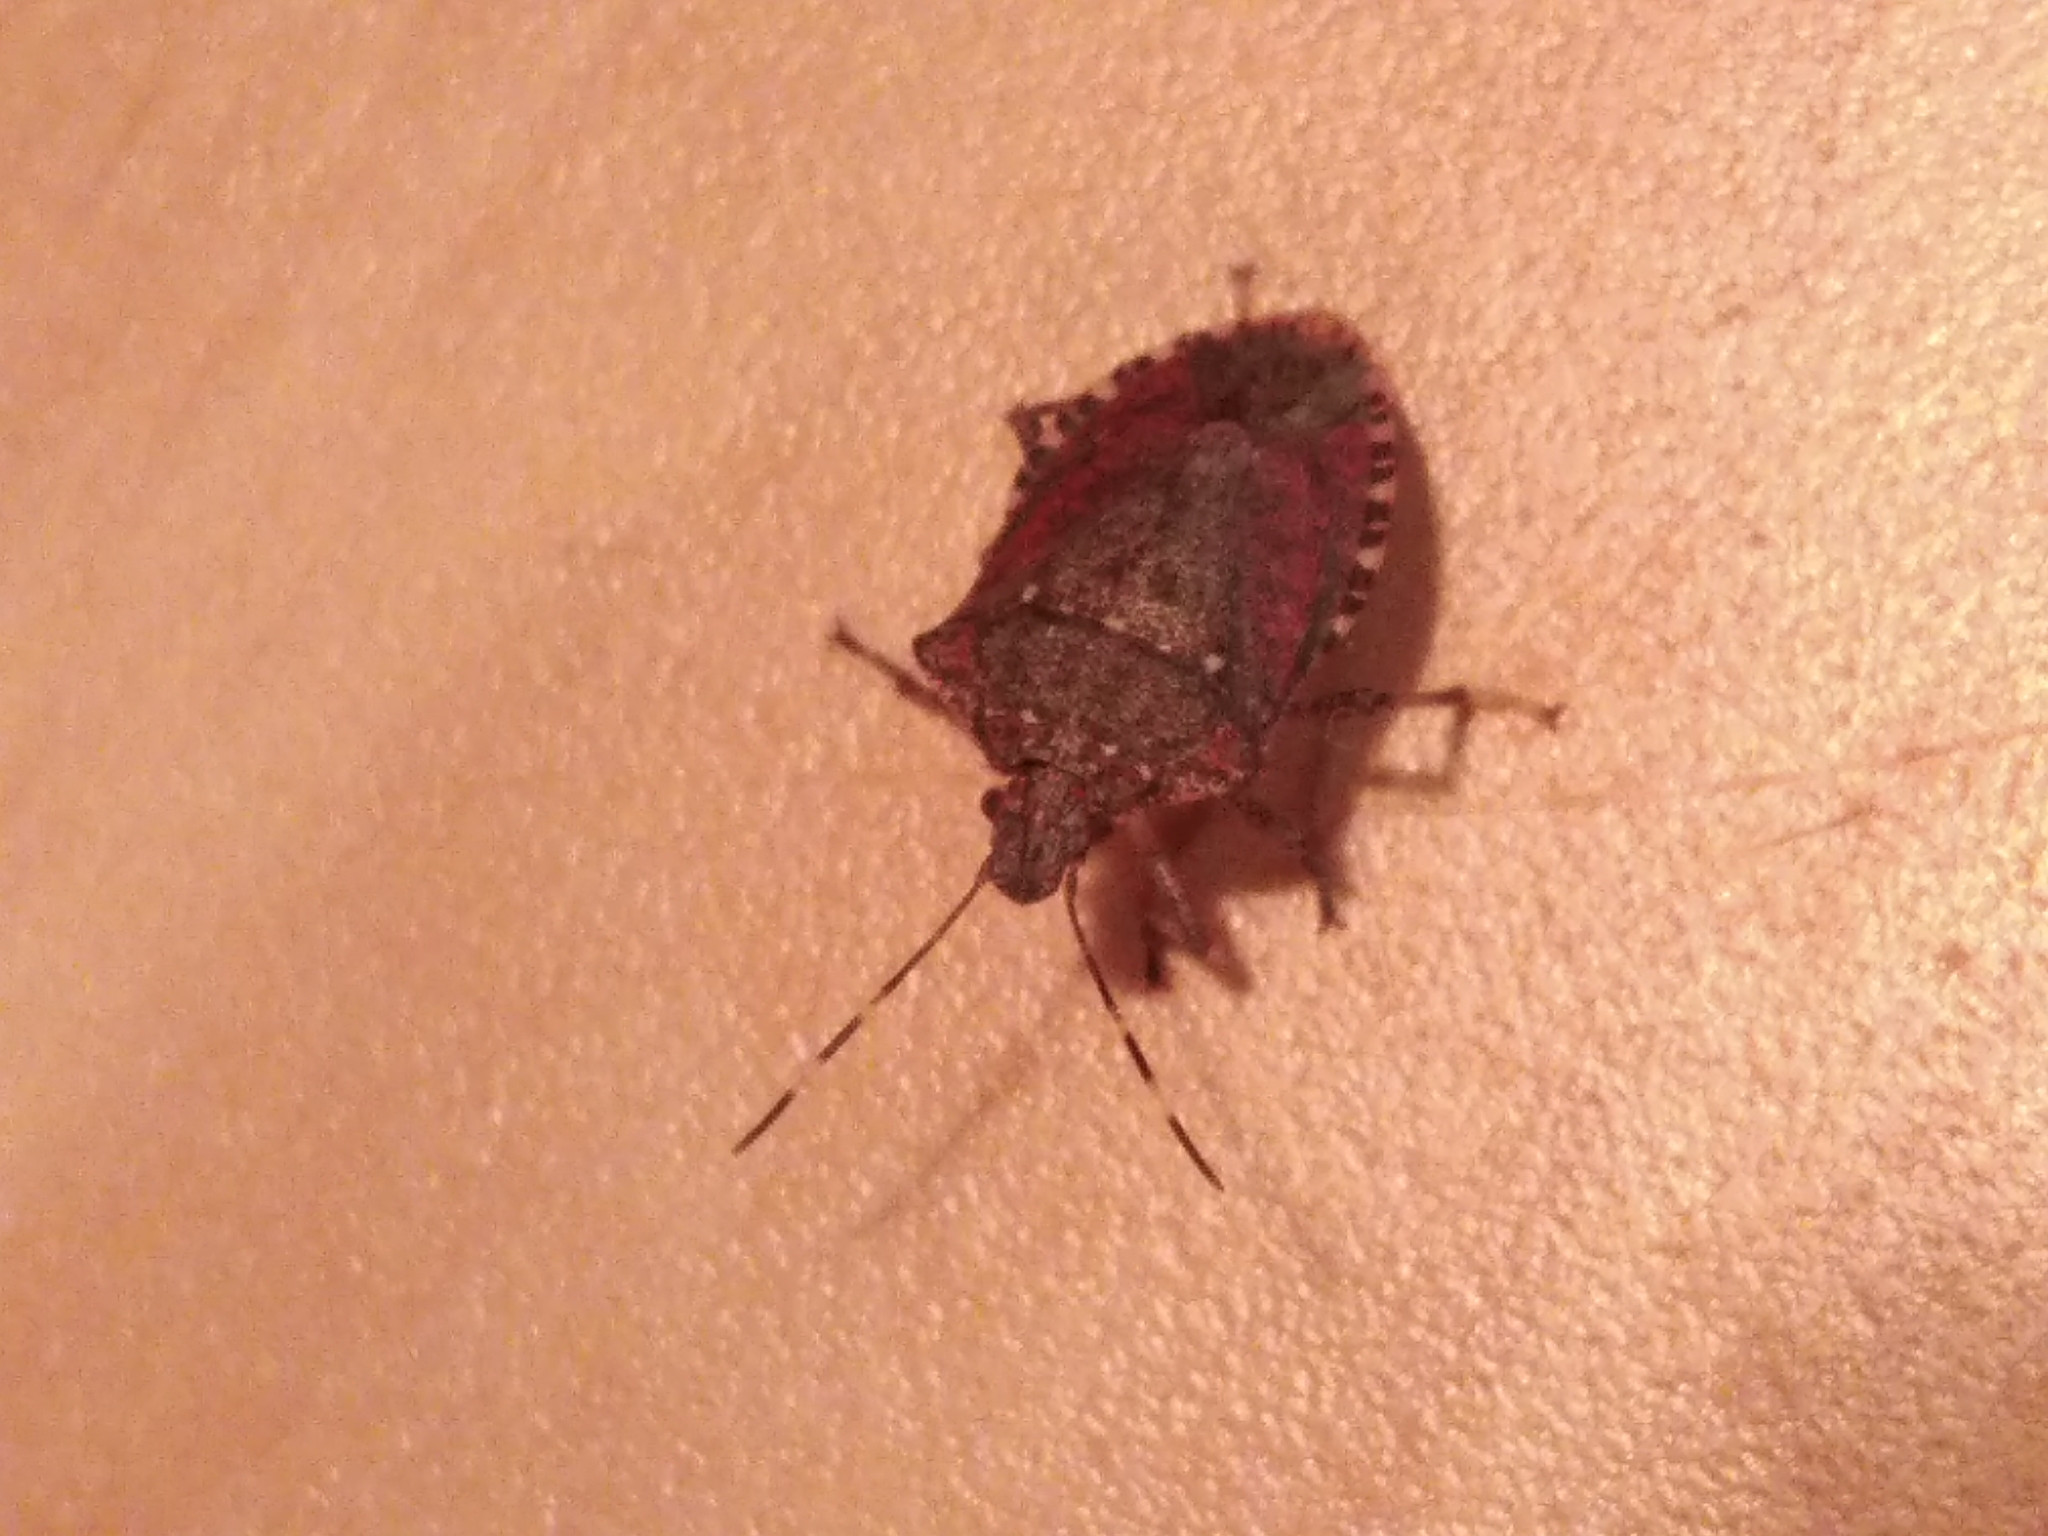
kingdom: Animalia
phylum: Arthropoda
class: Insecta
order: Hemiptera
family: Pentatomidae
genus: Halyomorpha
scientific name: Halyomorpha halys
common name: Brown marmorated stink bug
